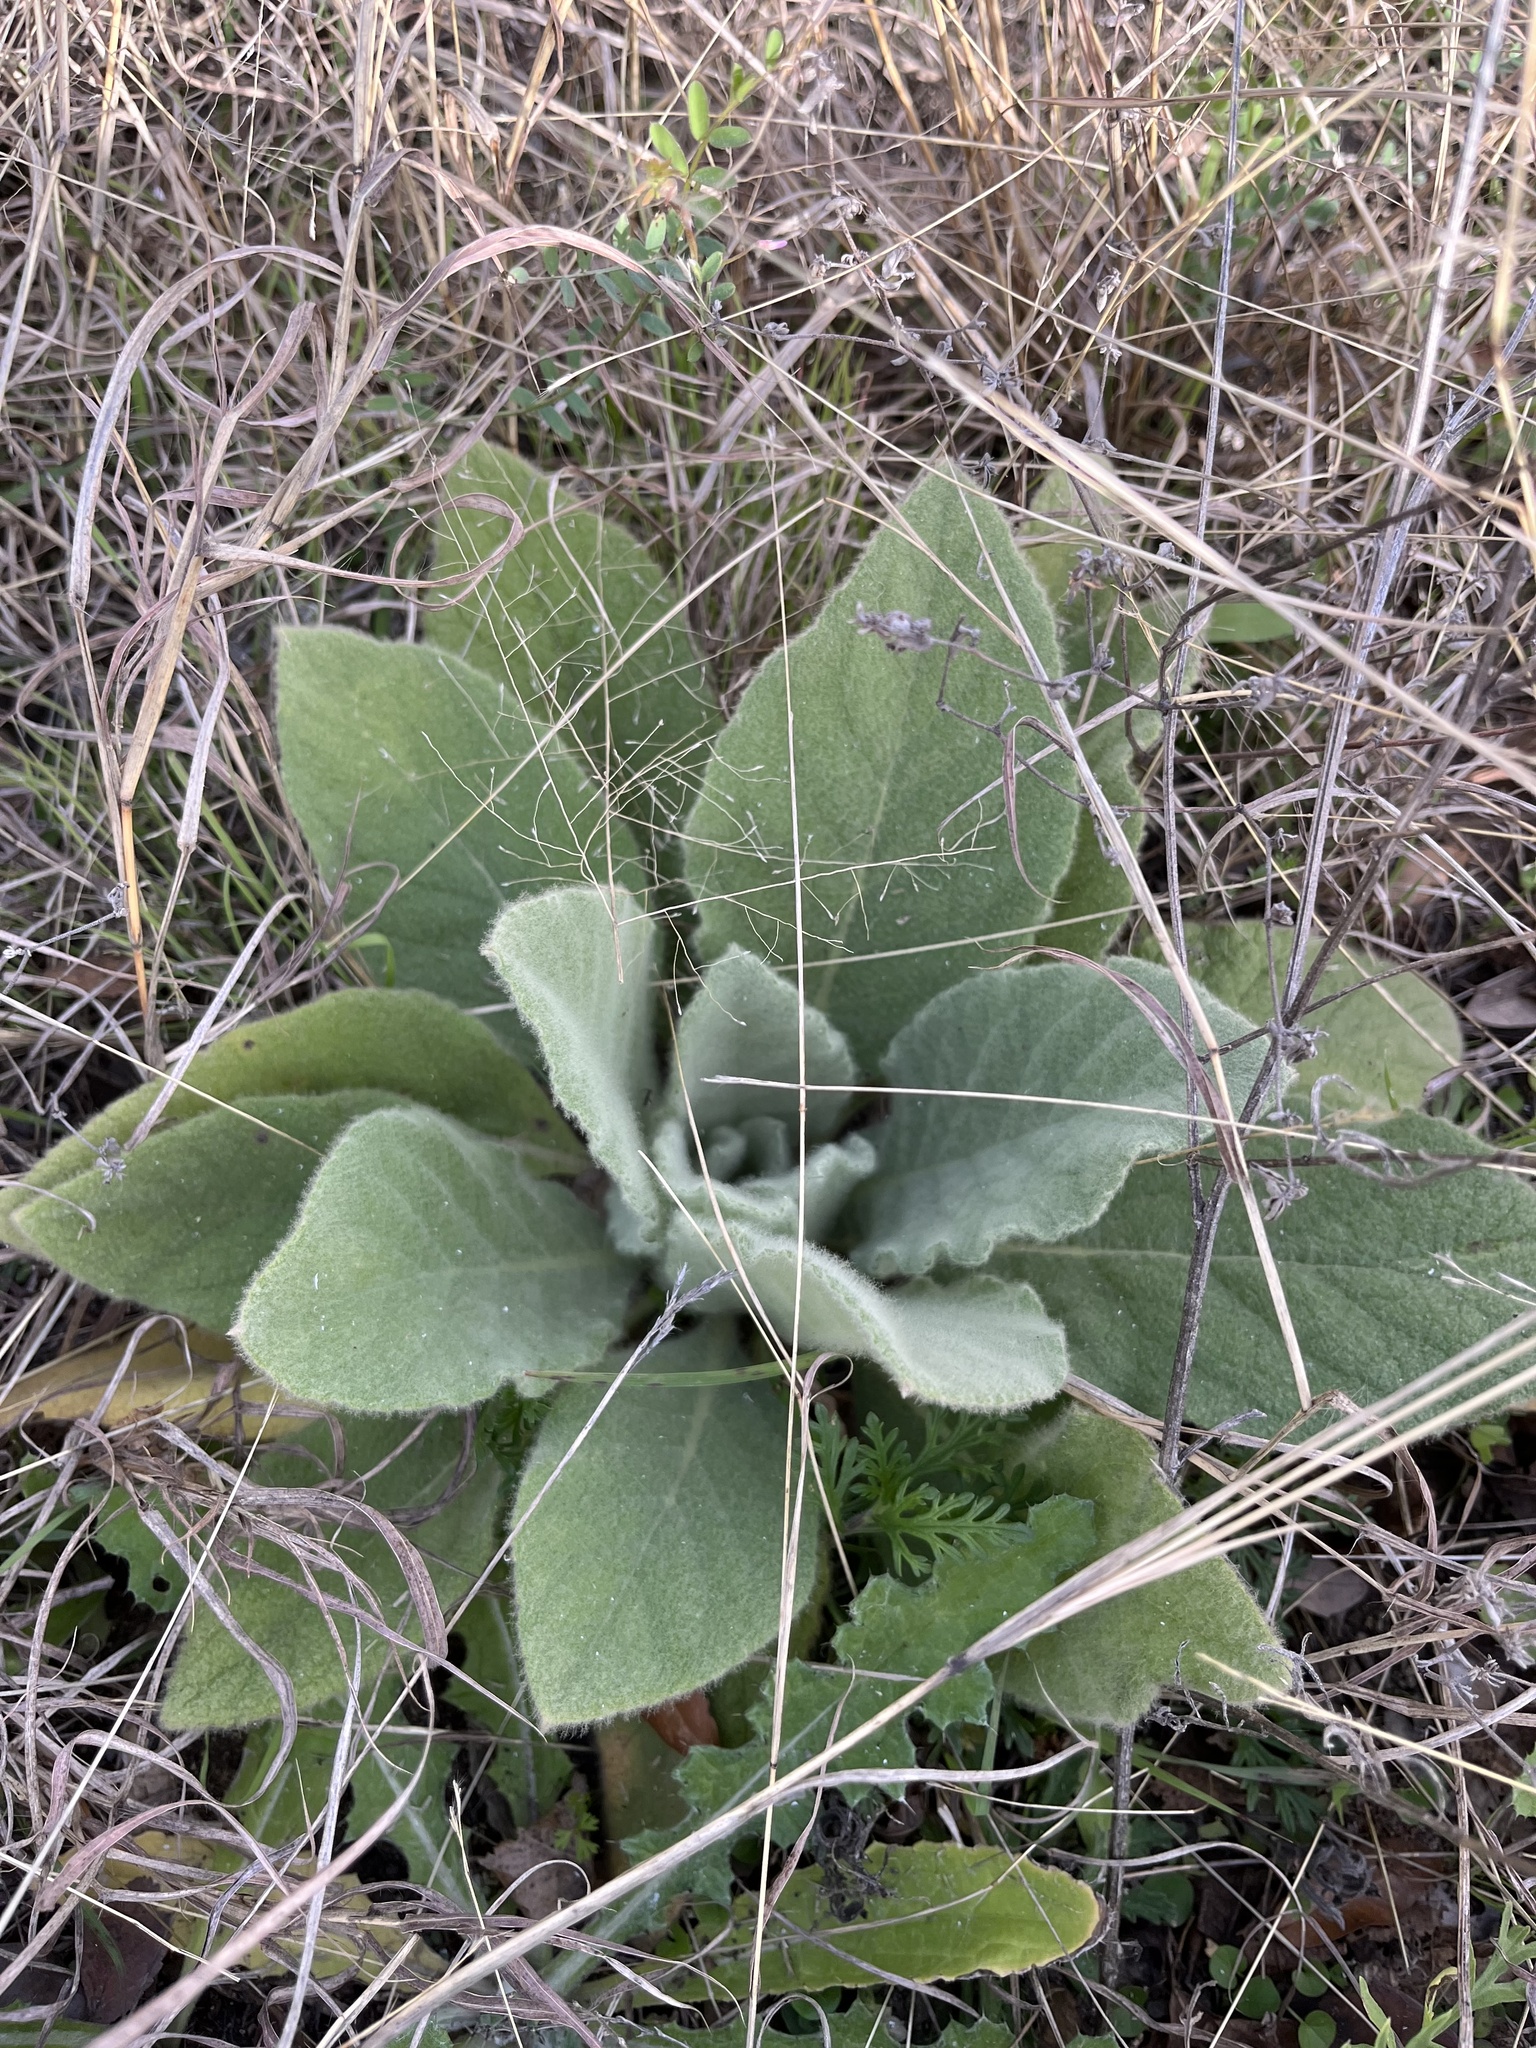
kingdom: Plantae
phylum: Tracheophyta
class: Magnoliopsida
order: Lamiales
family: Scrophulariaceae
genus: Verbascum
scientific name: Verbascum thapsus
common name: Common mullein
